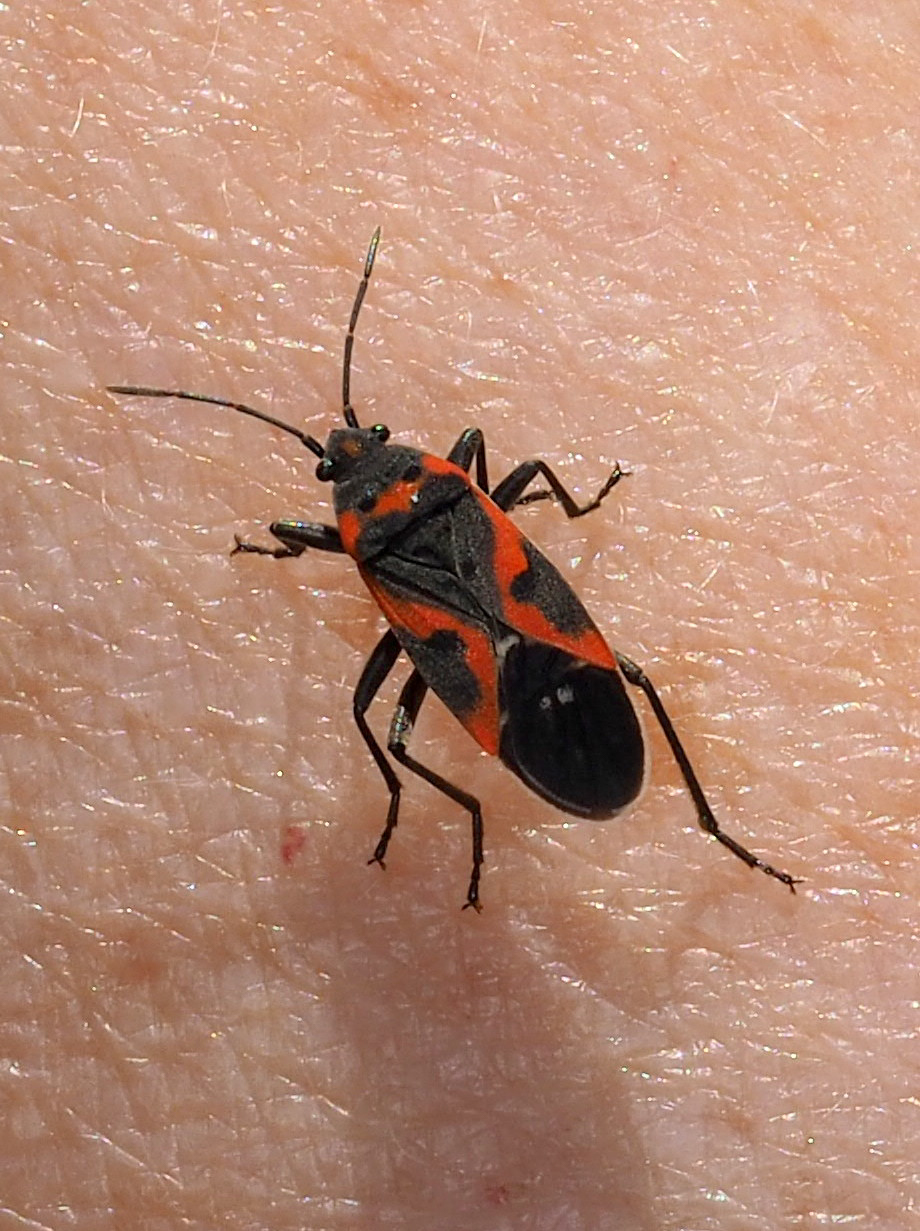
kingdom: Animalia
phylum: Arthropoda
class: Insecta
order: Hemiptera
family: Lygaeidae
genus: Lygaeus
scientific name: Lygaeus kalmii
